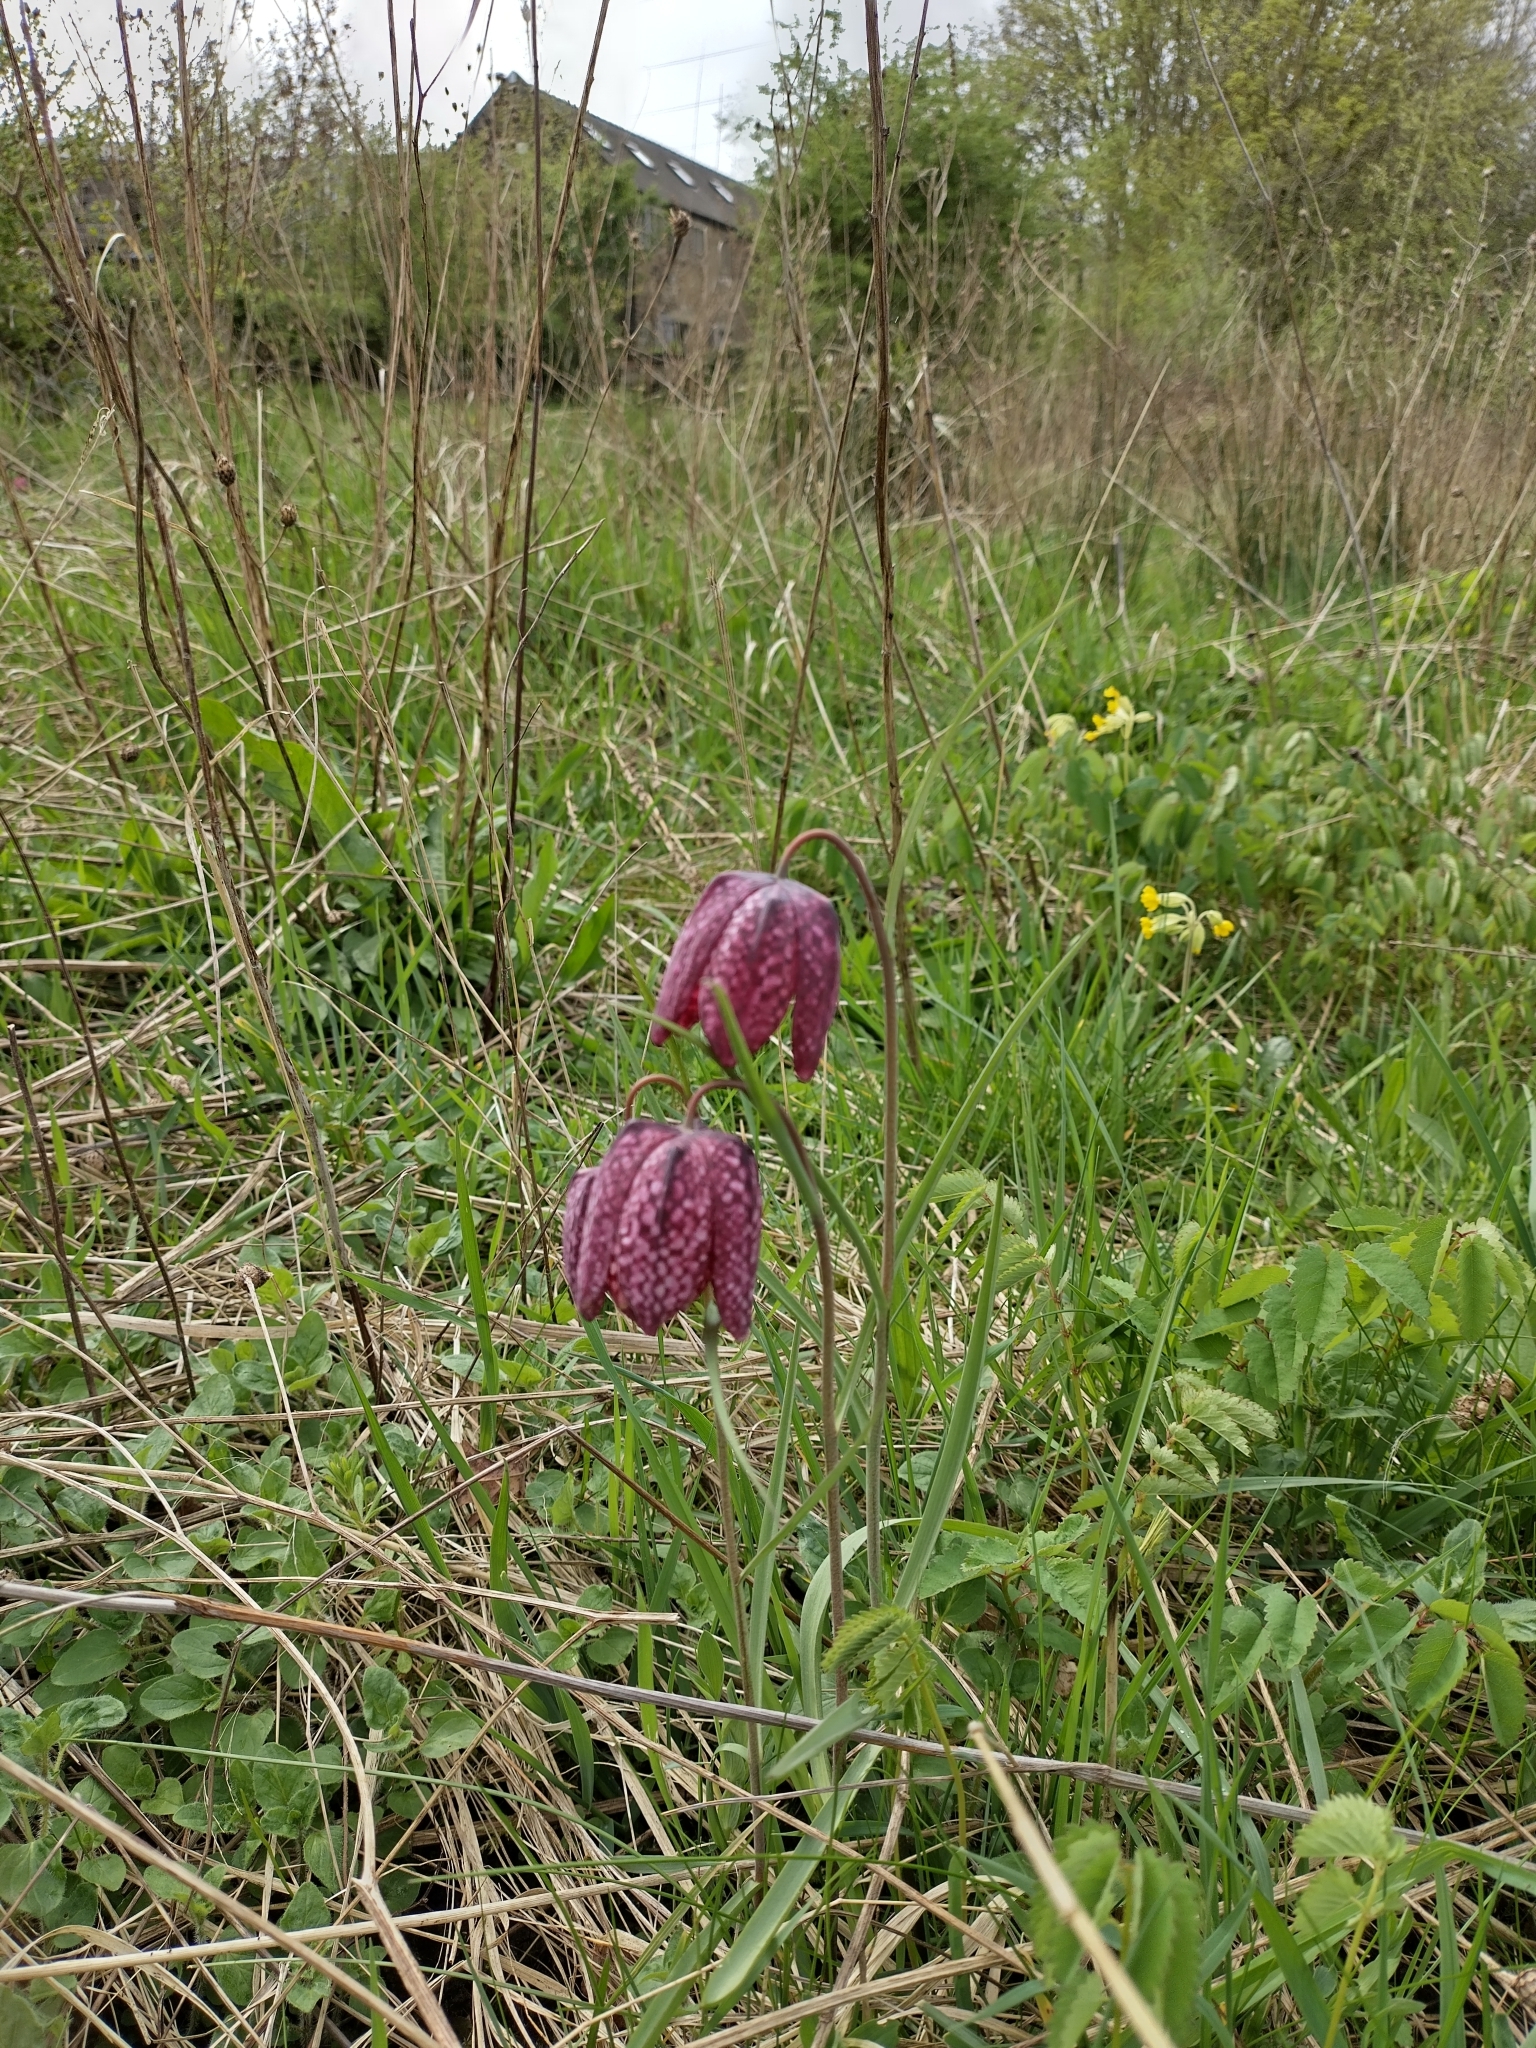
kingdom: Plantae
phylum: Tracheophyta
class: Liliopsida
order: Liliales
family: Liliaceae
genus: Fritillaria
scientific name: Fritillaria meleagris
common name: Fritillary
